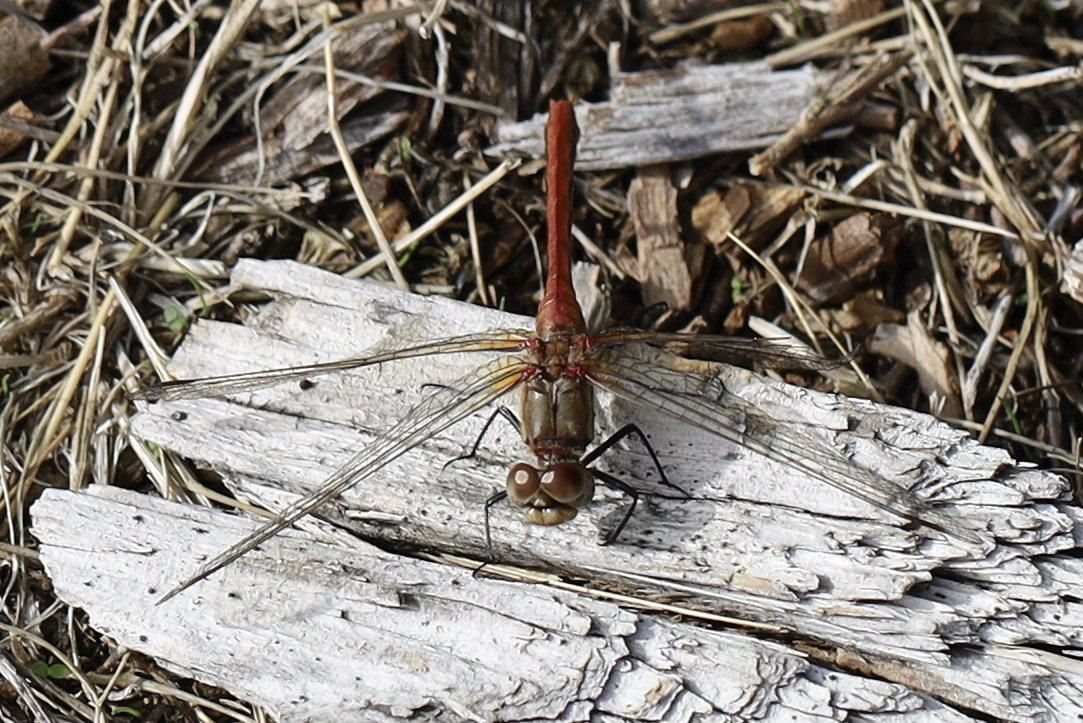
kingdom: Animalia
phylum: Arthropoda
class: Insecta
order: Odonata
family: Libellulidae
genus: Sympetrum
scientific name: Sympetrum pallipes
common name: Striped meadowhawk
